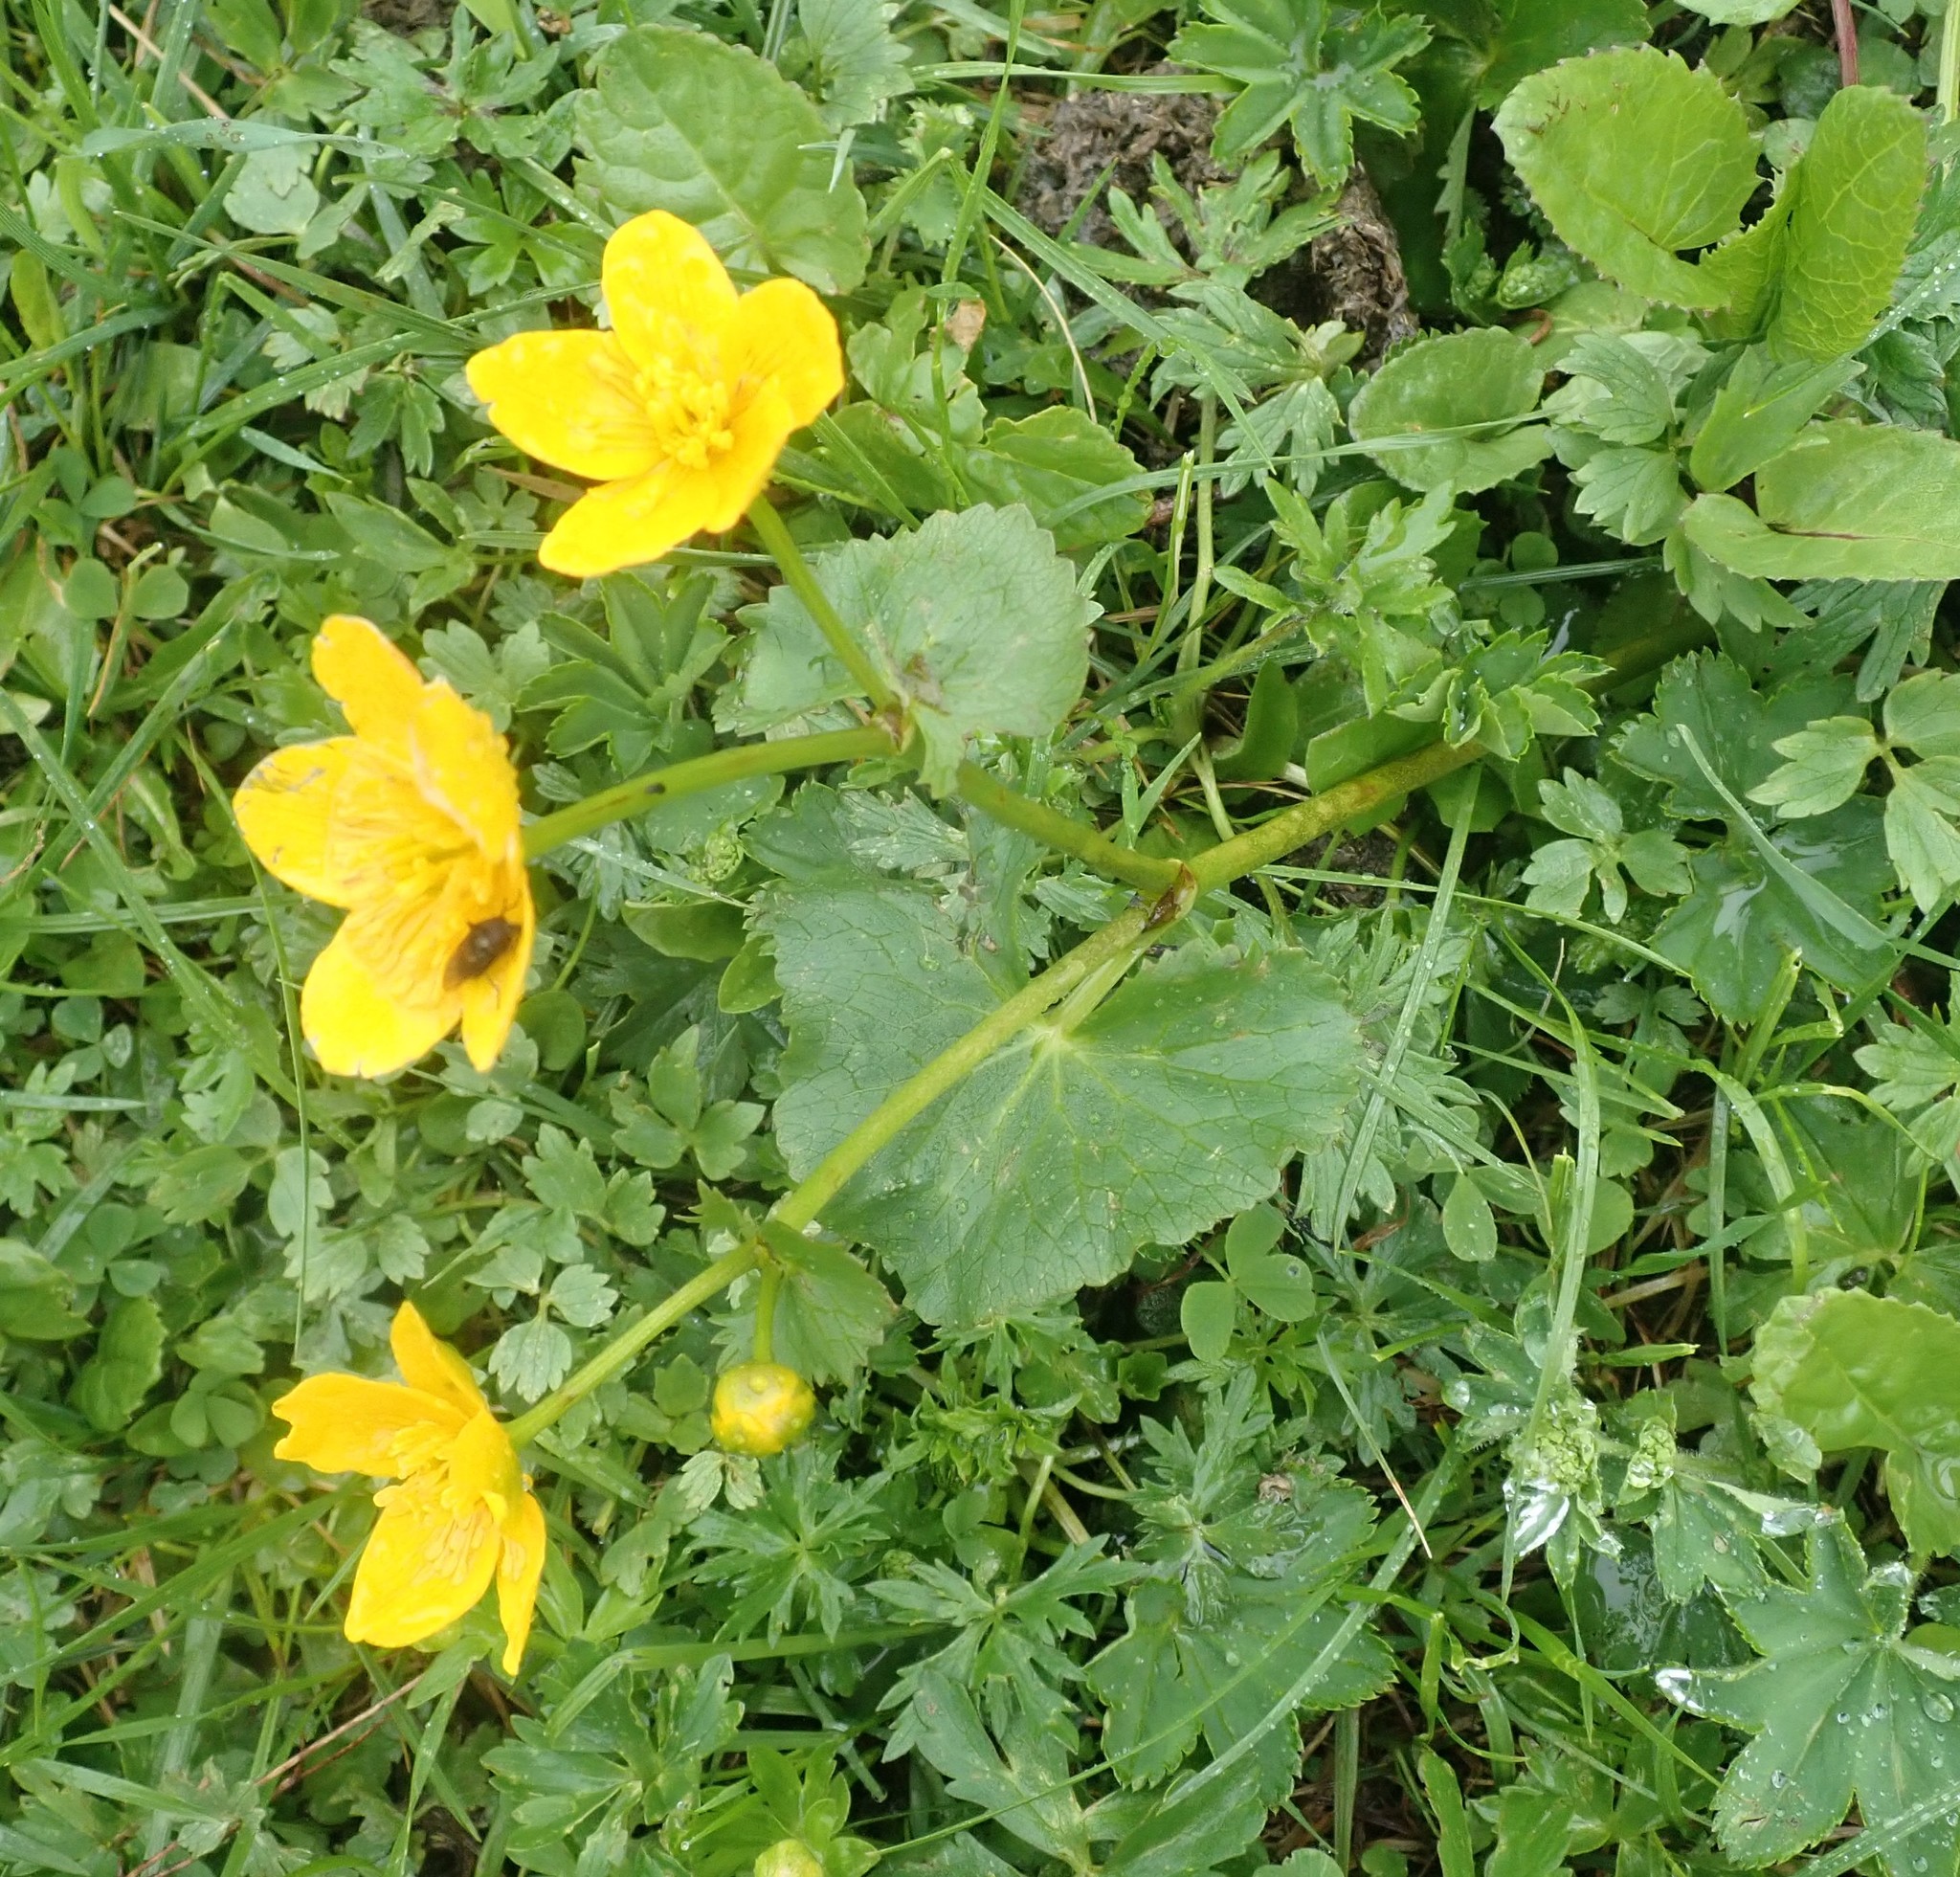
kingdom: Plantae
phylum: Tracheophyta
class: Magnoliopsida
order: Ranunculales
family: Ranunculaceae
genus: Caltha
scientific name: Caltha palustris
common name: Marsh marigold
